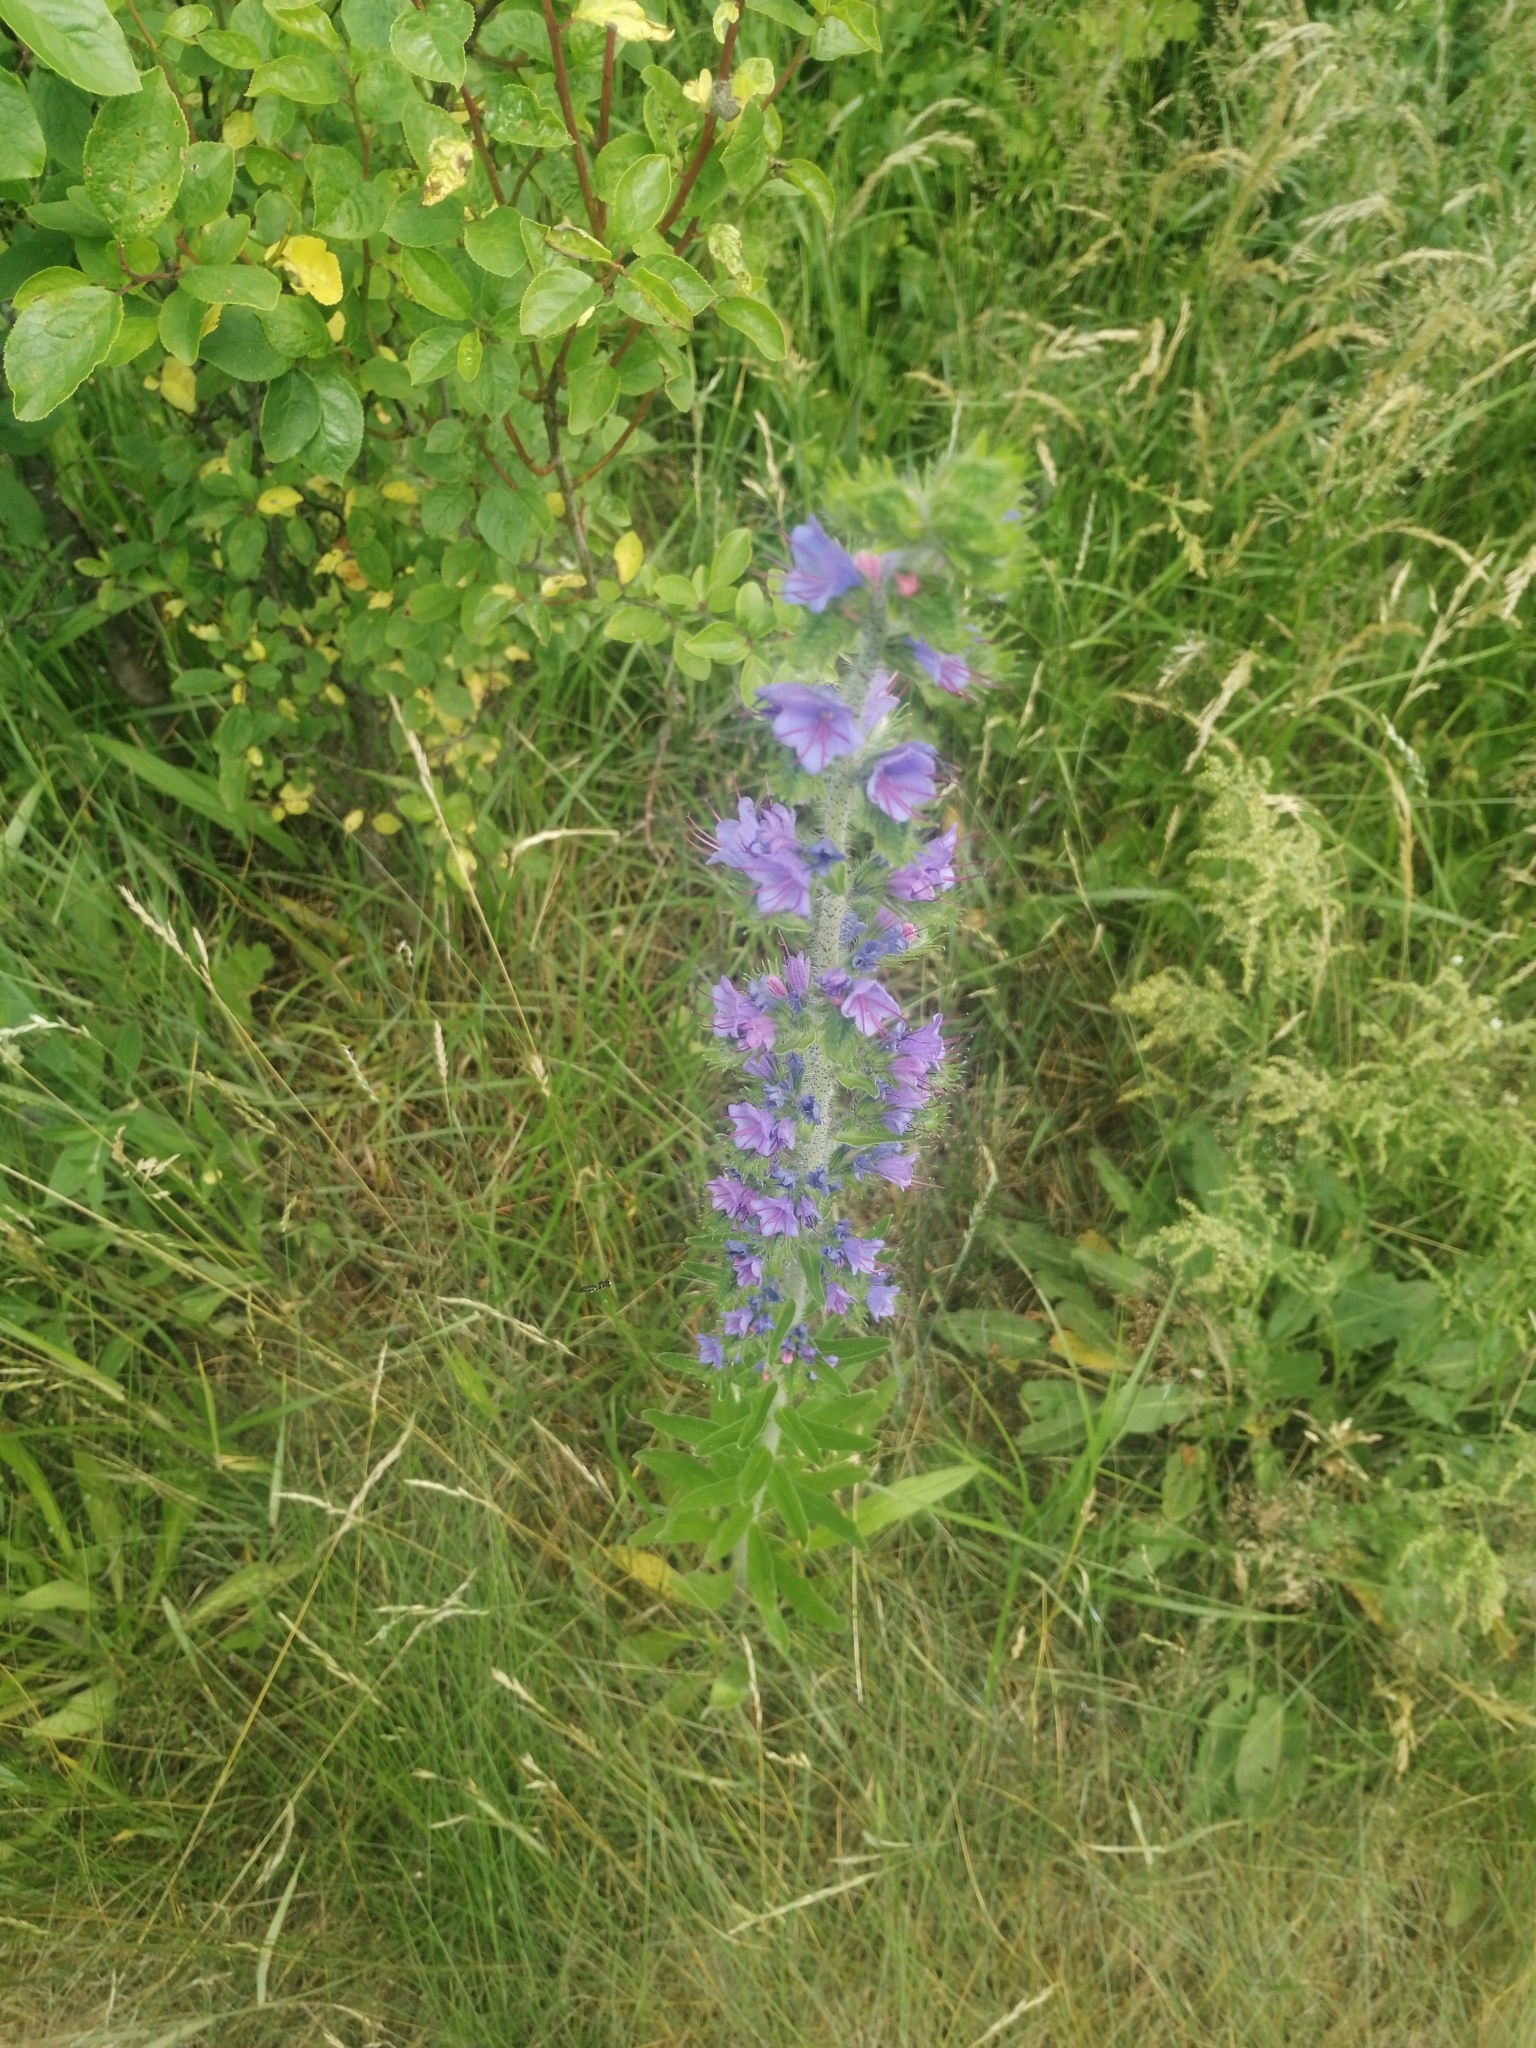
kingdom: Plantae
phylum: Tracheophyta
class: Magnoliopsida
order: Boraginales
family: Boraginaceae
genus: Echium
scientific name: Echium vulgare
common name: Common viper's bugloss
